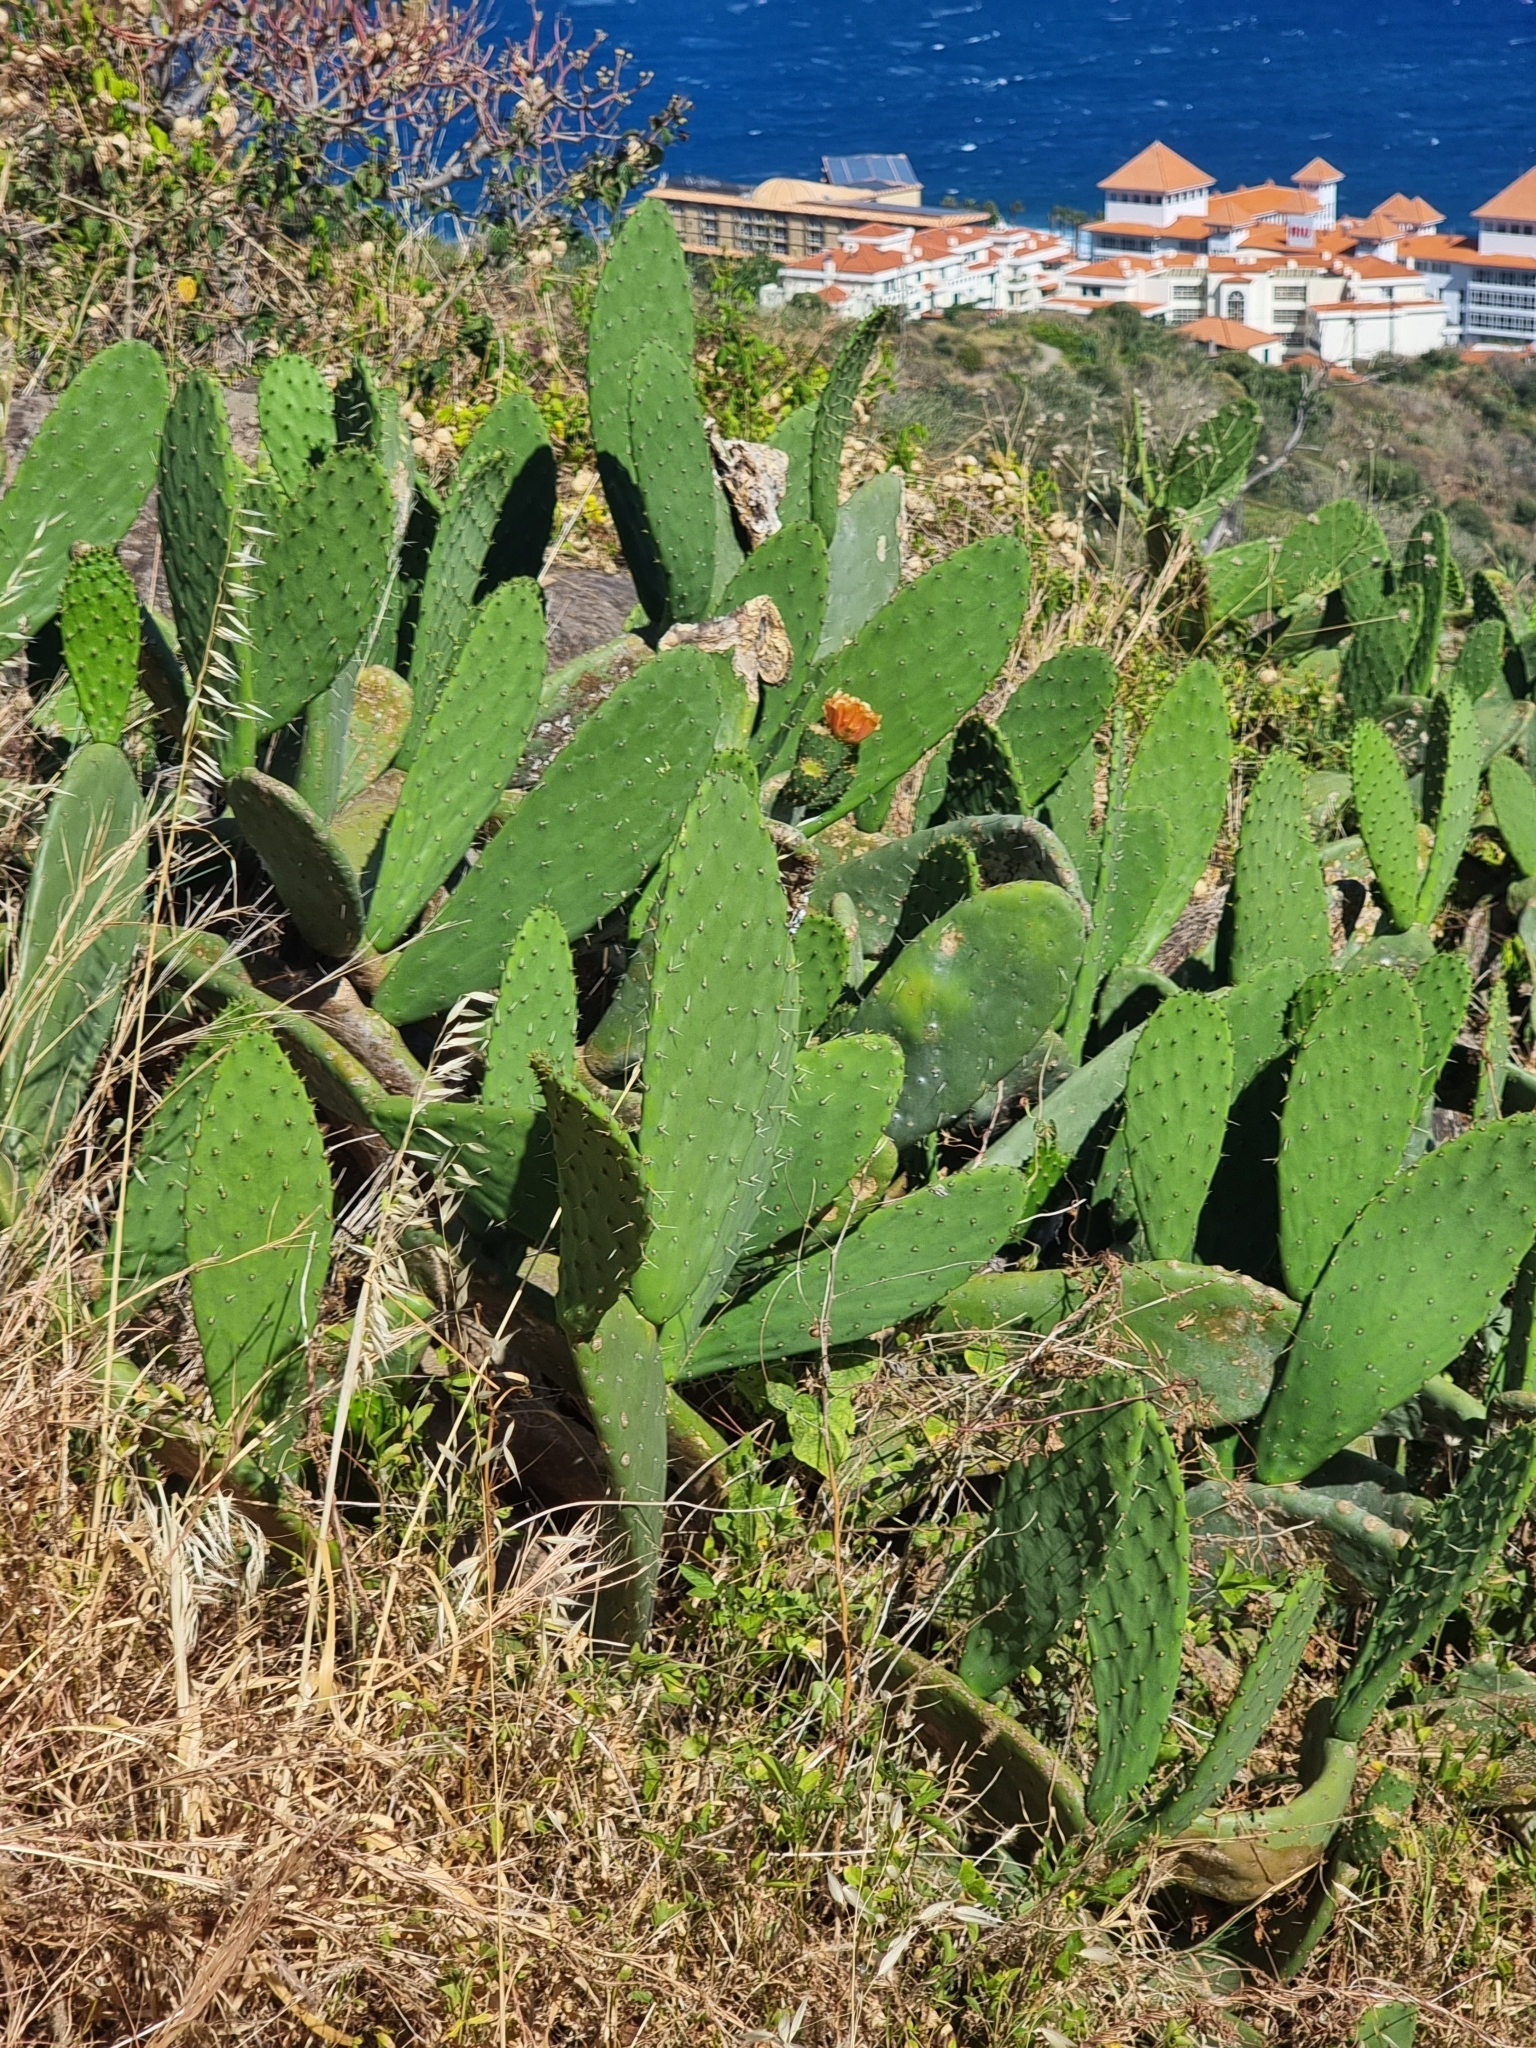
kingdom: Plantae
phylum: Tracheophyta
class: Magnoliopsida
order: Caryophyllales
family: Cactaceae
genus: Opuntia
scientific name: Opuntia ficus-indica
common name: Barbary fig
